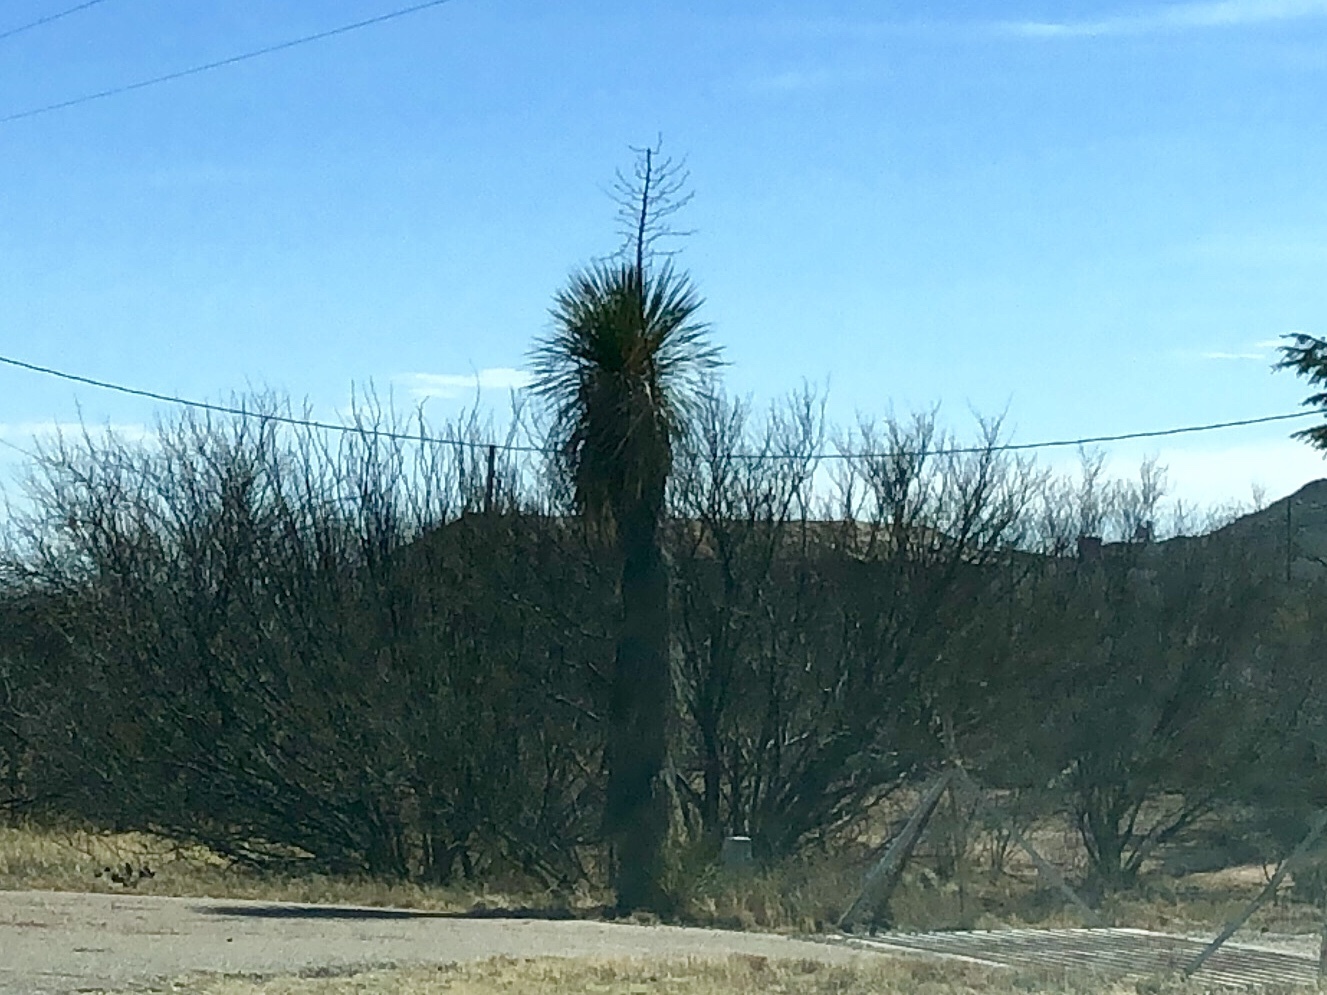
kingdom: Plantae
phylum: Tracheophyta
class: Liliopsida
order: Asparagales
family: Asparagaceae
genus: Yucca
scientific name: Yucca elata
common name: Palmella
